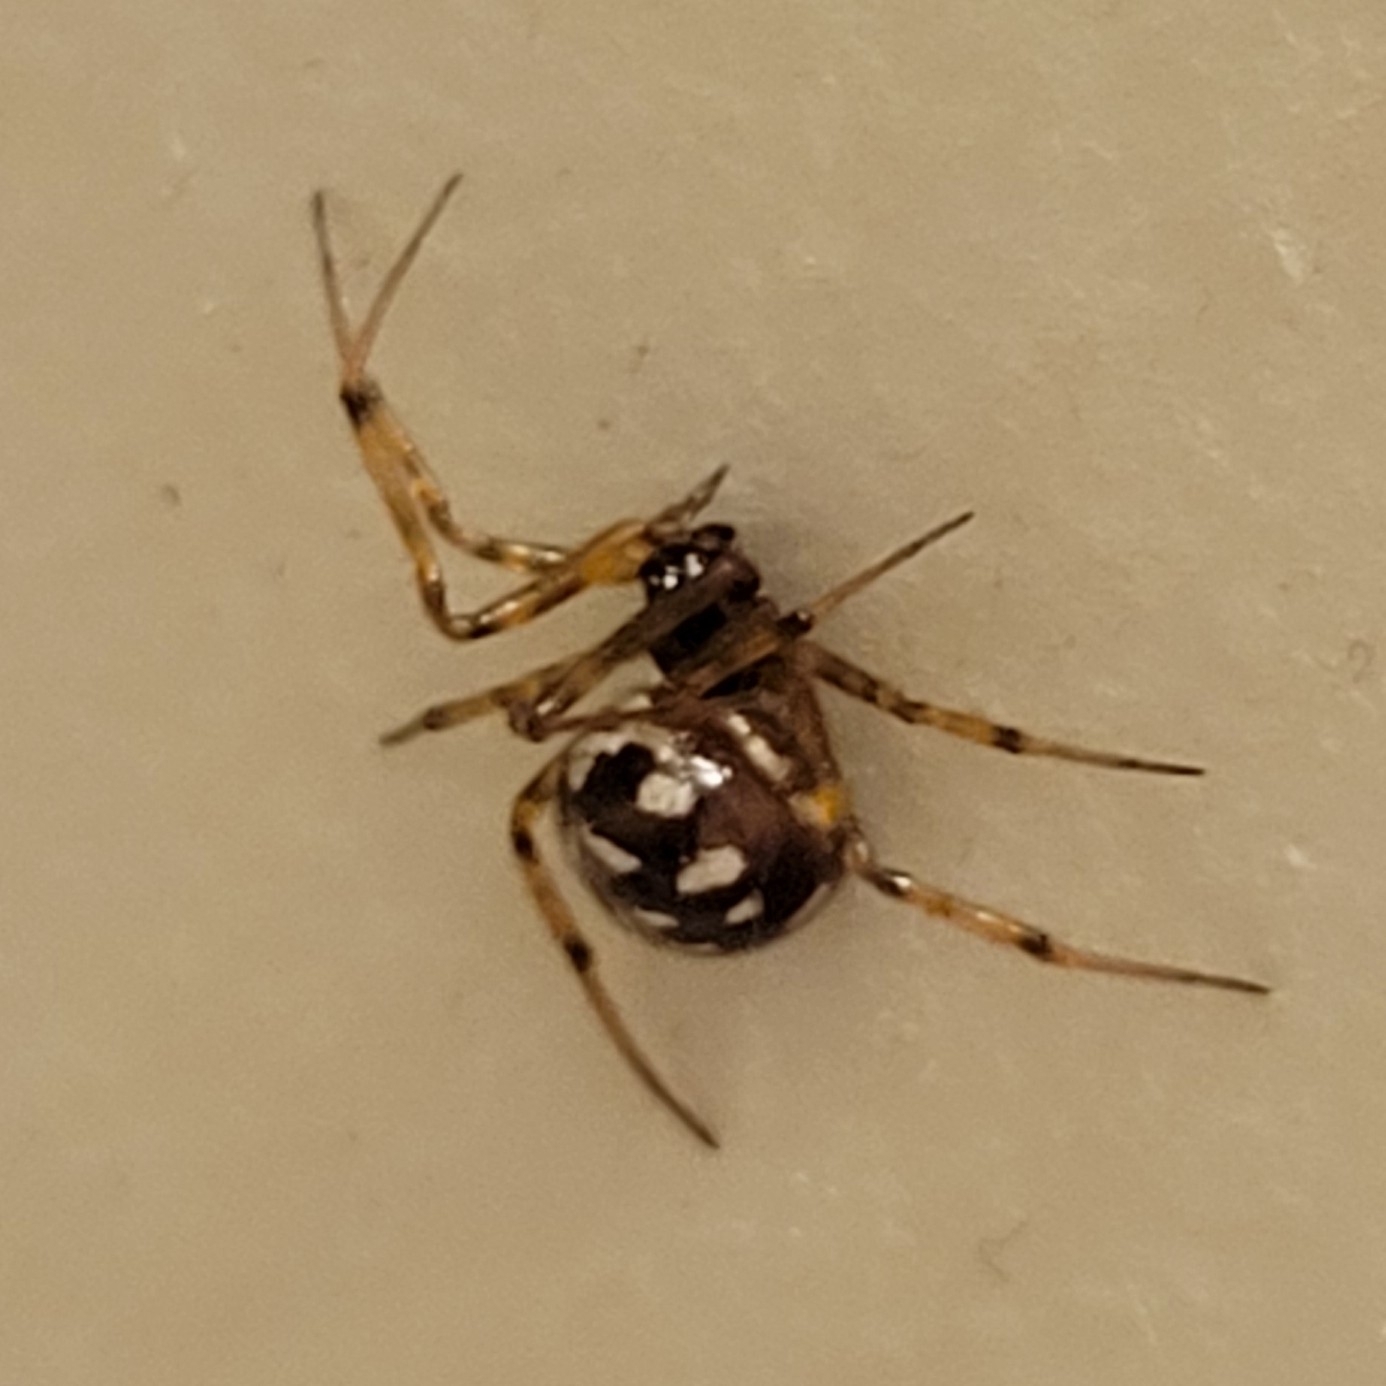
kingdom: Animalia
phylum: Arthropoda
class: Arachnida
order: Araneae
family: Theridiidae
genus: Steatoda
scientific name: Steatoda triangulosa
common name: Triangulate bud spider
